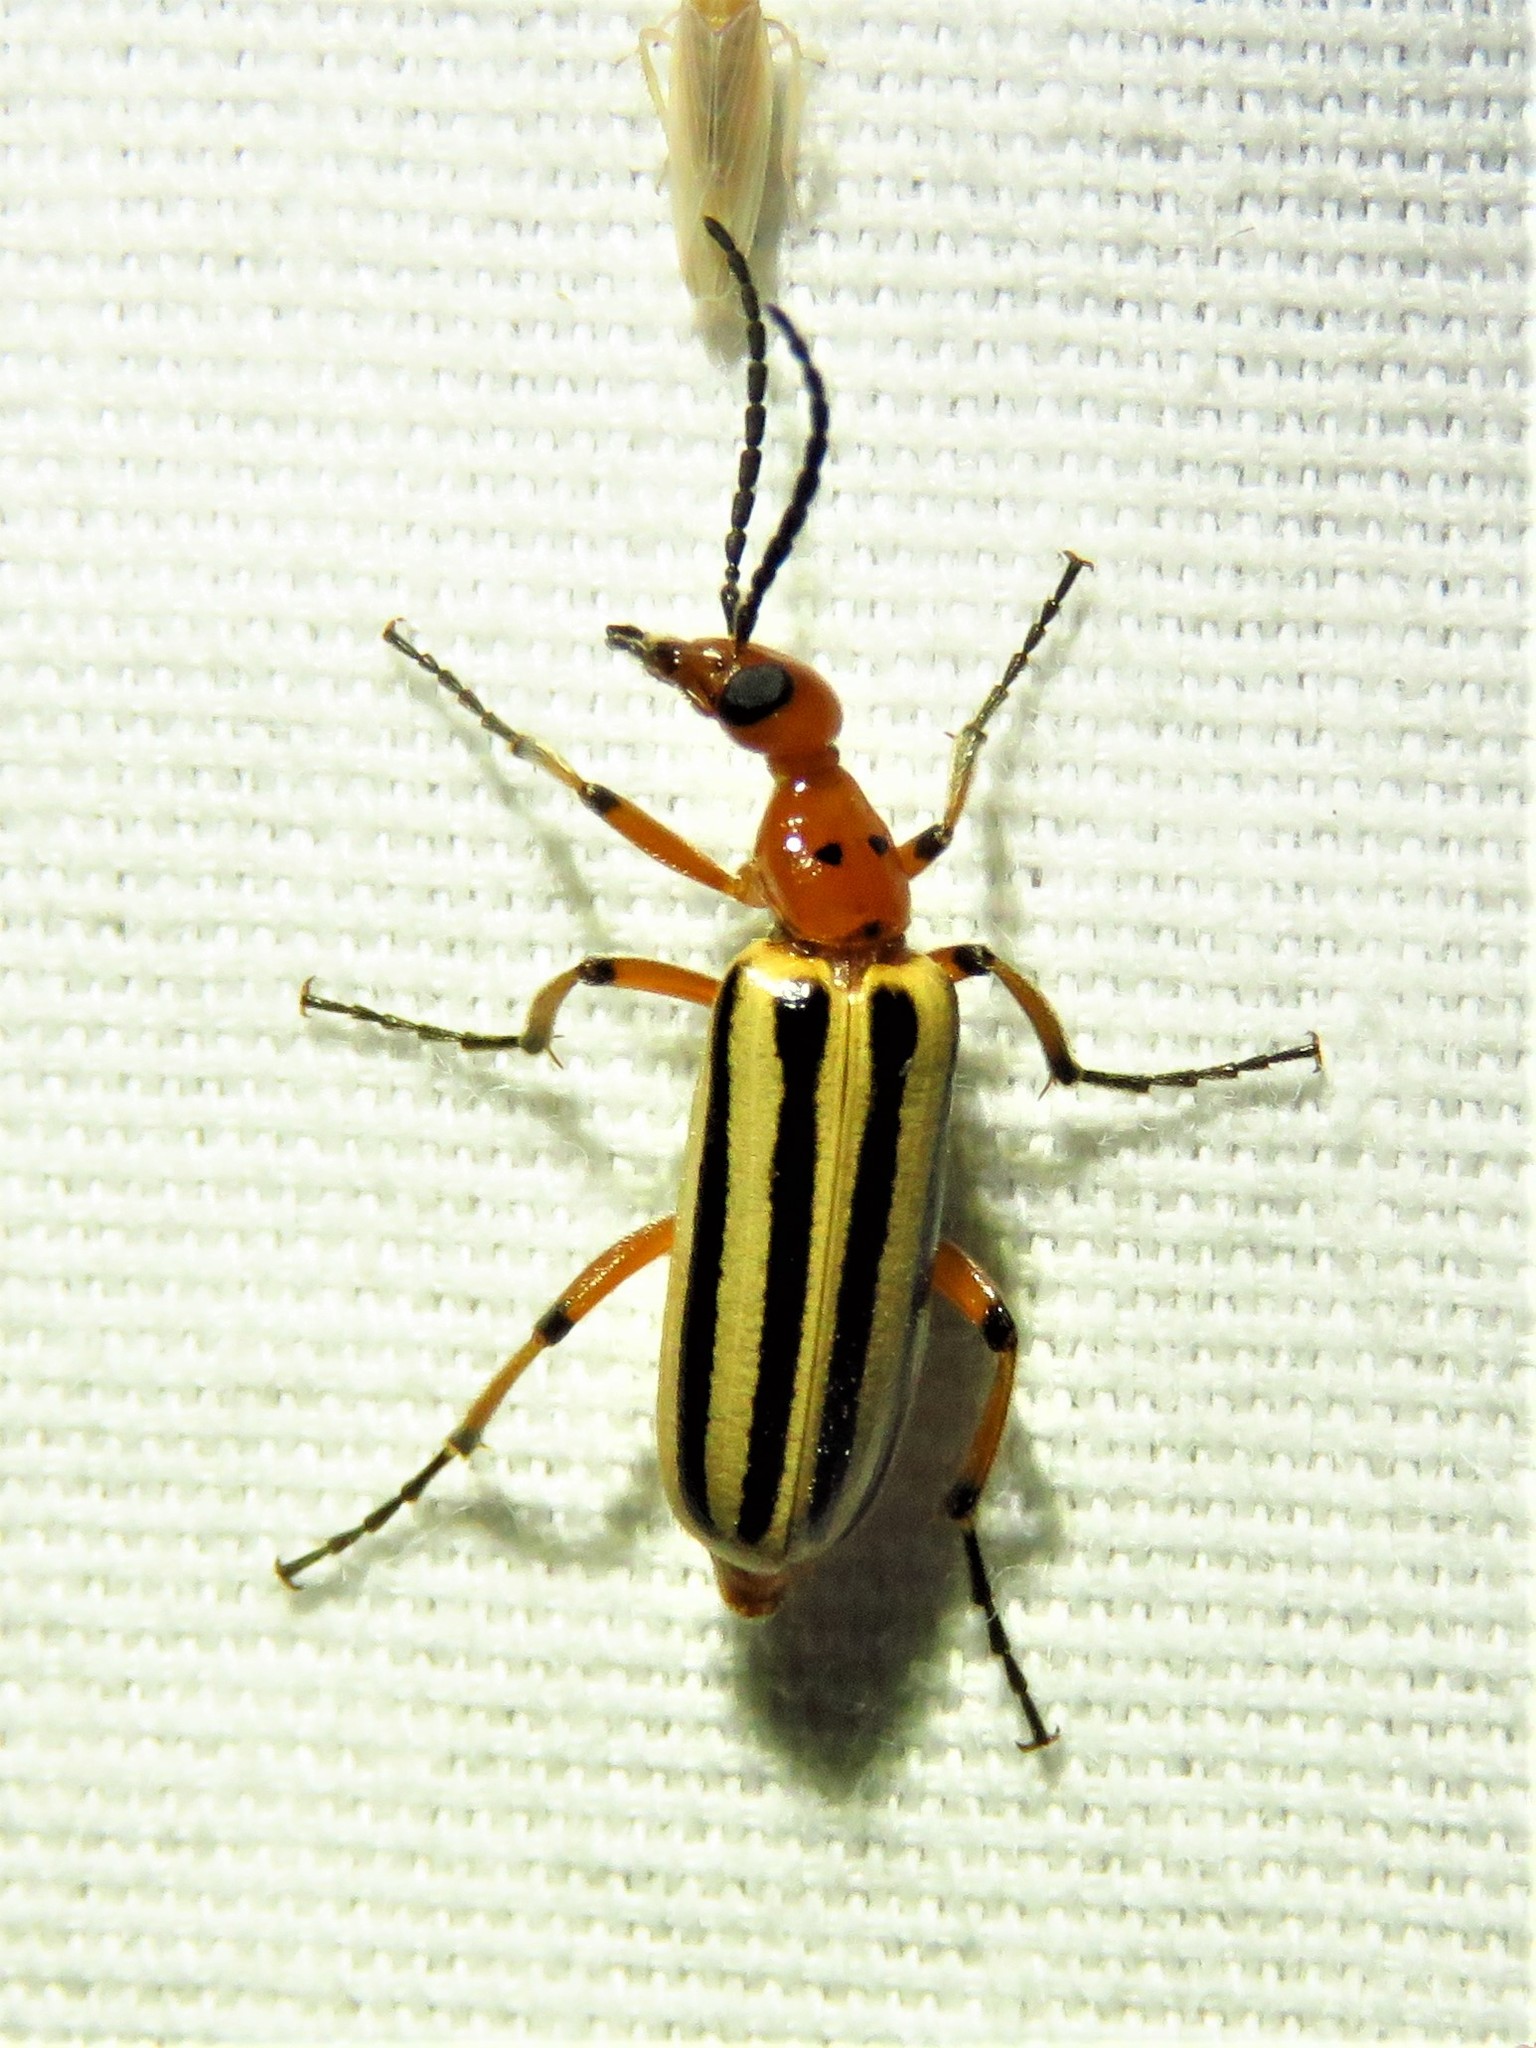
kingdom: Animalia
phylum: Arthropoda
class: Insecta
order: Coleoptera
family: Meloidae
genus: Pyrota
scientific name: Pyrota bilineata
